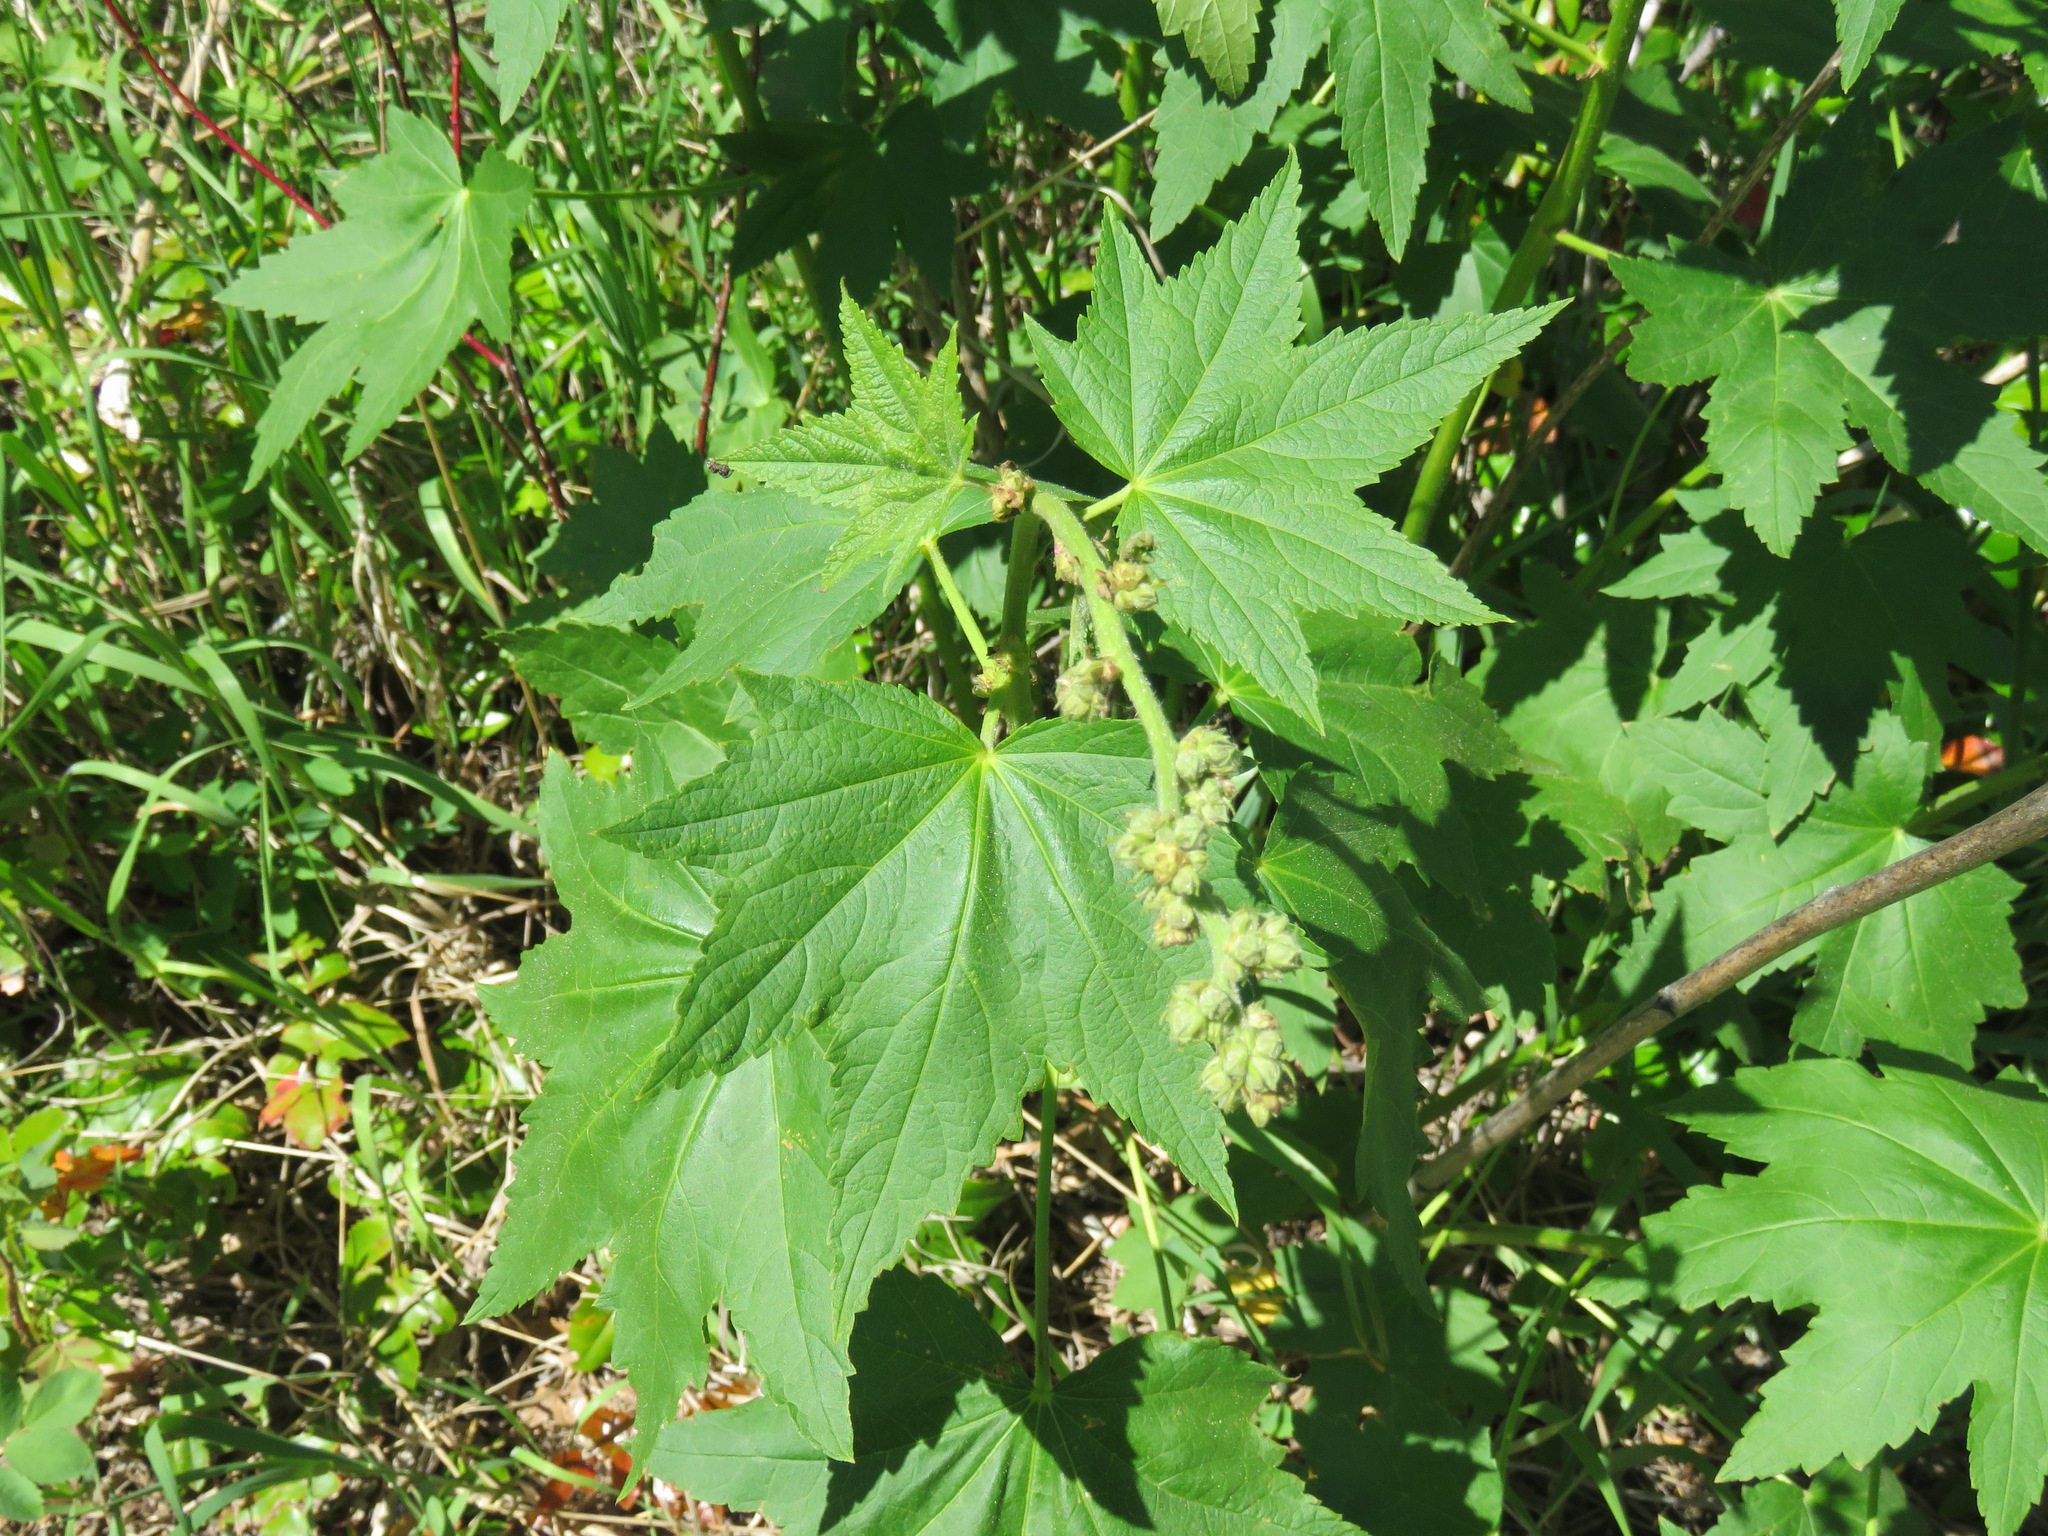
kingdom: Plantae
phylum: Tracheophyta
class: Magnoliopsida
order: Malvales
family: Malvaceae
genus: Iliamna
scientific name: Iliamna rivularis
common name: Wild hollyhock
